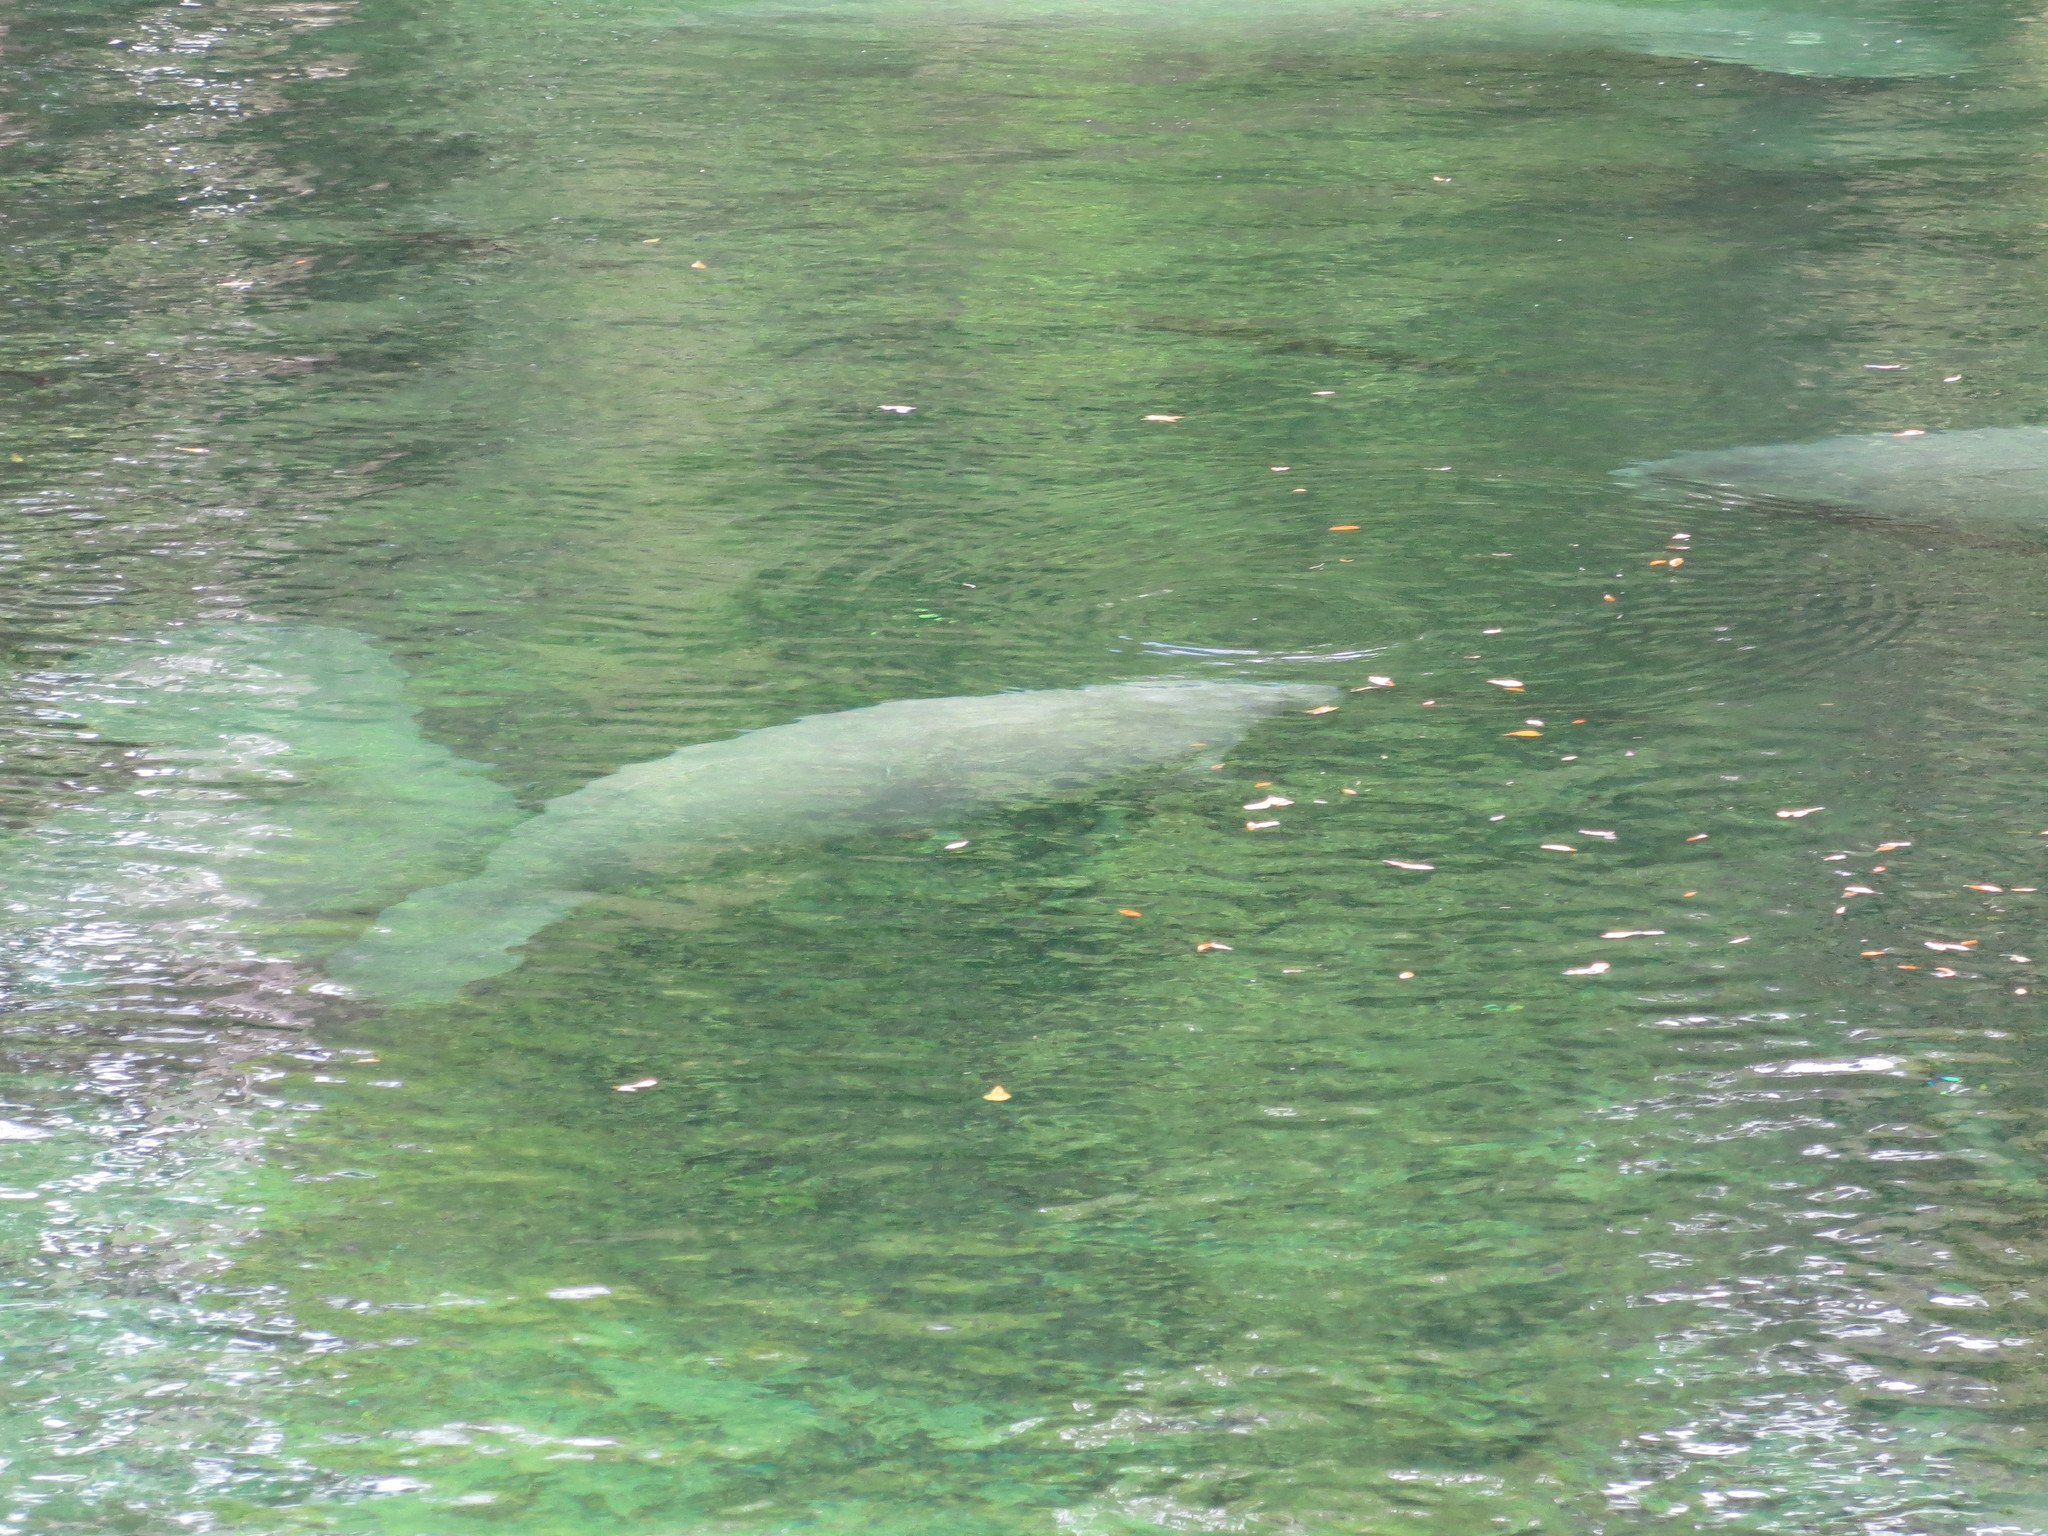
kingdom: Animalia
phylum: Chordata
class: Mammalia
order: Sirenia
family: Trichechidae
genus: Trichechus
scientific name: Trichechus manatus
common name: West indian manatee
